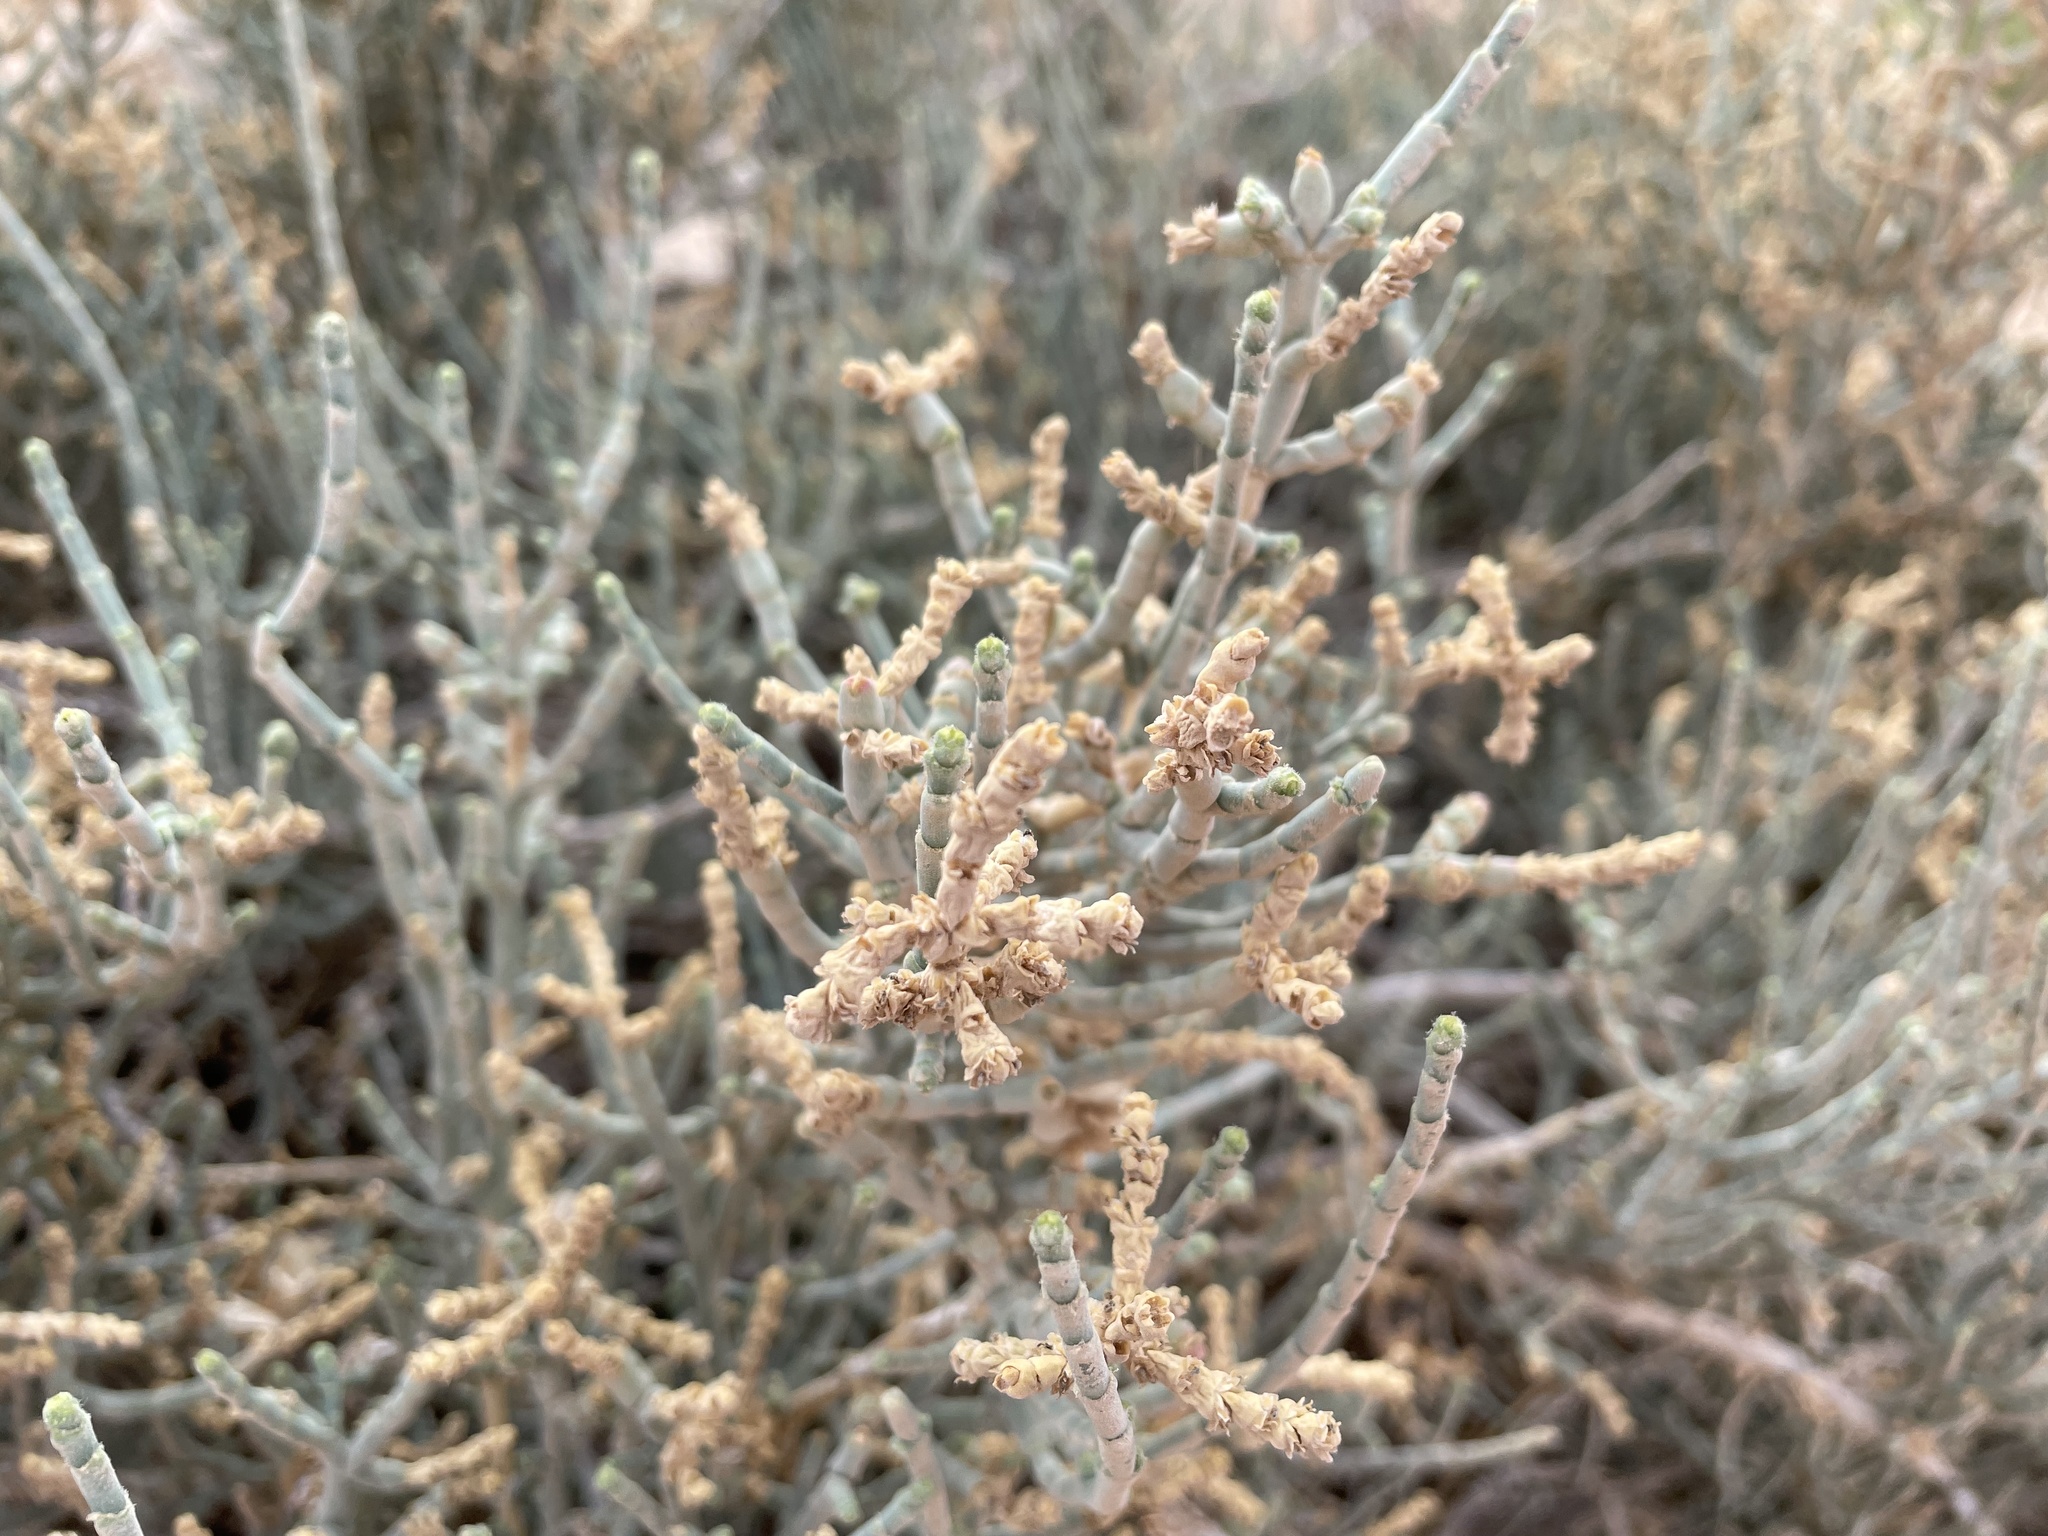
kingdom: Plantae
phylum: Tracheophyta
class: Magnoliopsida
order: Caryophyllales
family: Amaranthaceae
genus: Anabasis
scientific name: Anabasis articulata
